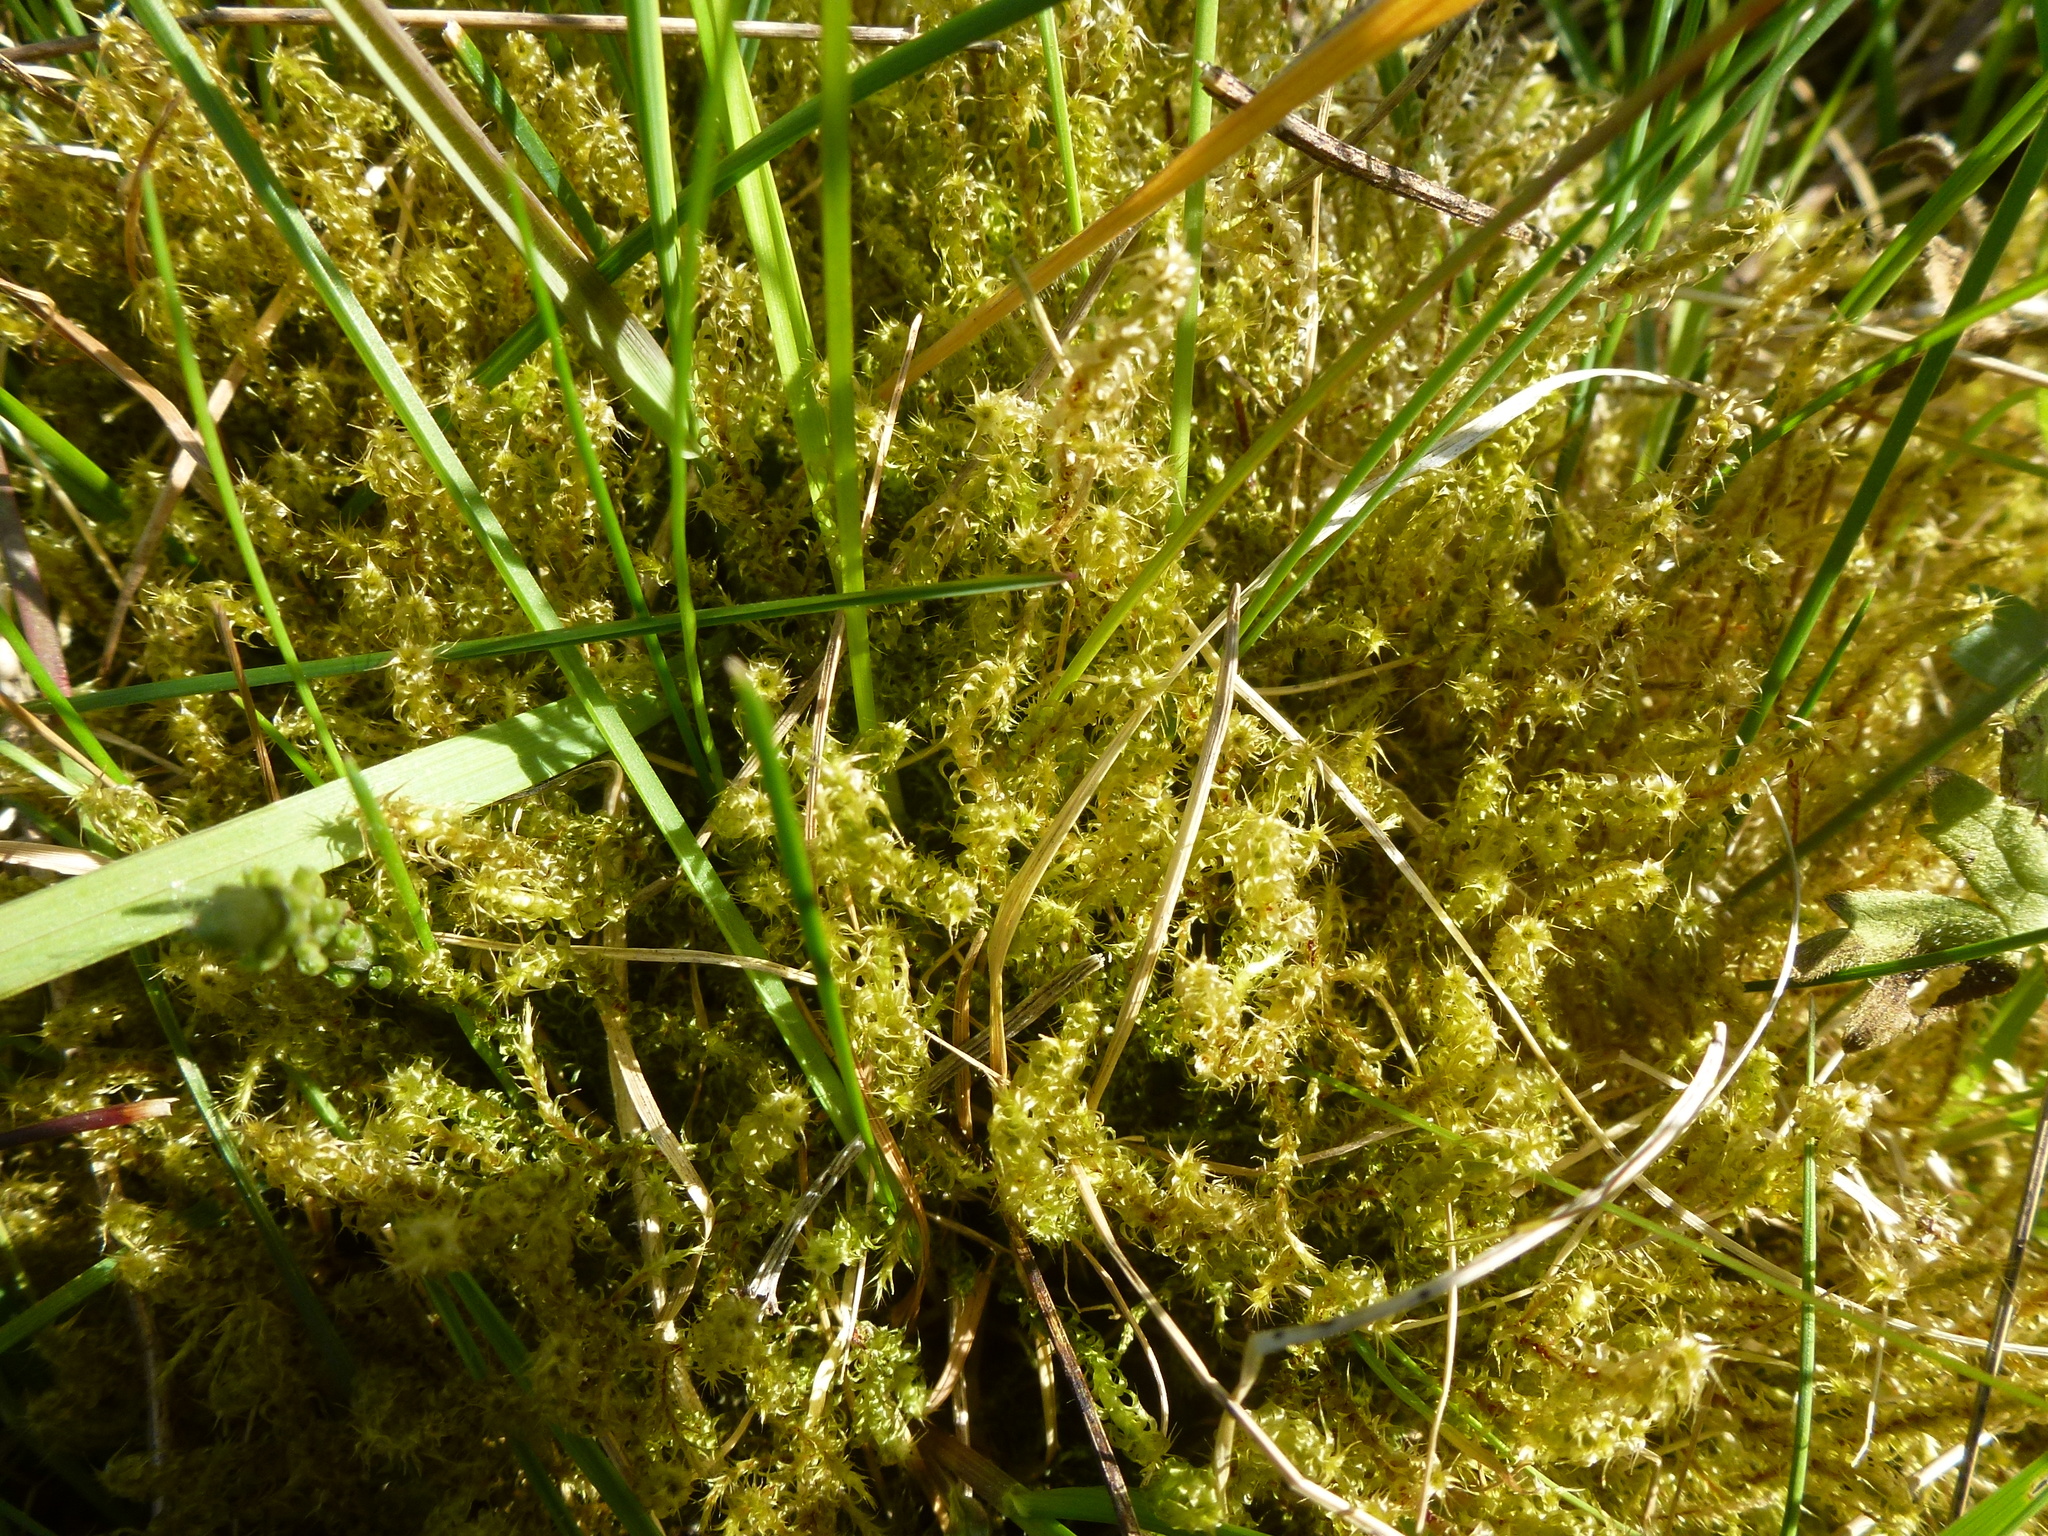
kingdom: Plantae
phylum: Bryophyta
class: Bryopsida
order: Hypnales
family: Hylocomiaceae
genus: Rhytidiadelphus
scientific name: Rhytidiadelphus squarrosus
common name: Springy turf-moss
